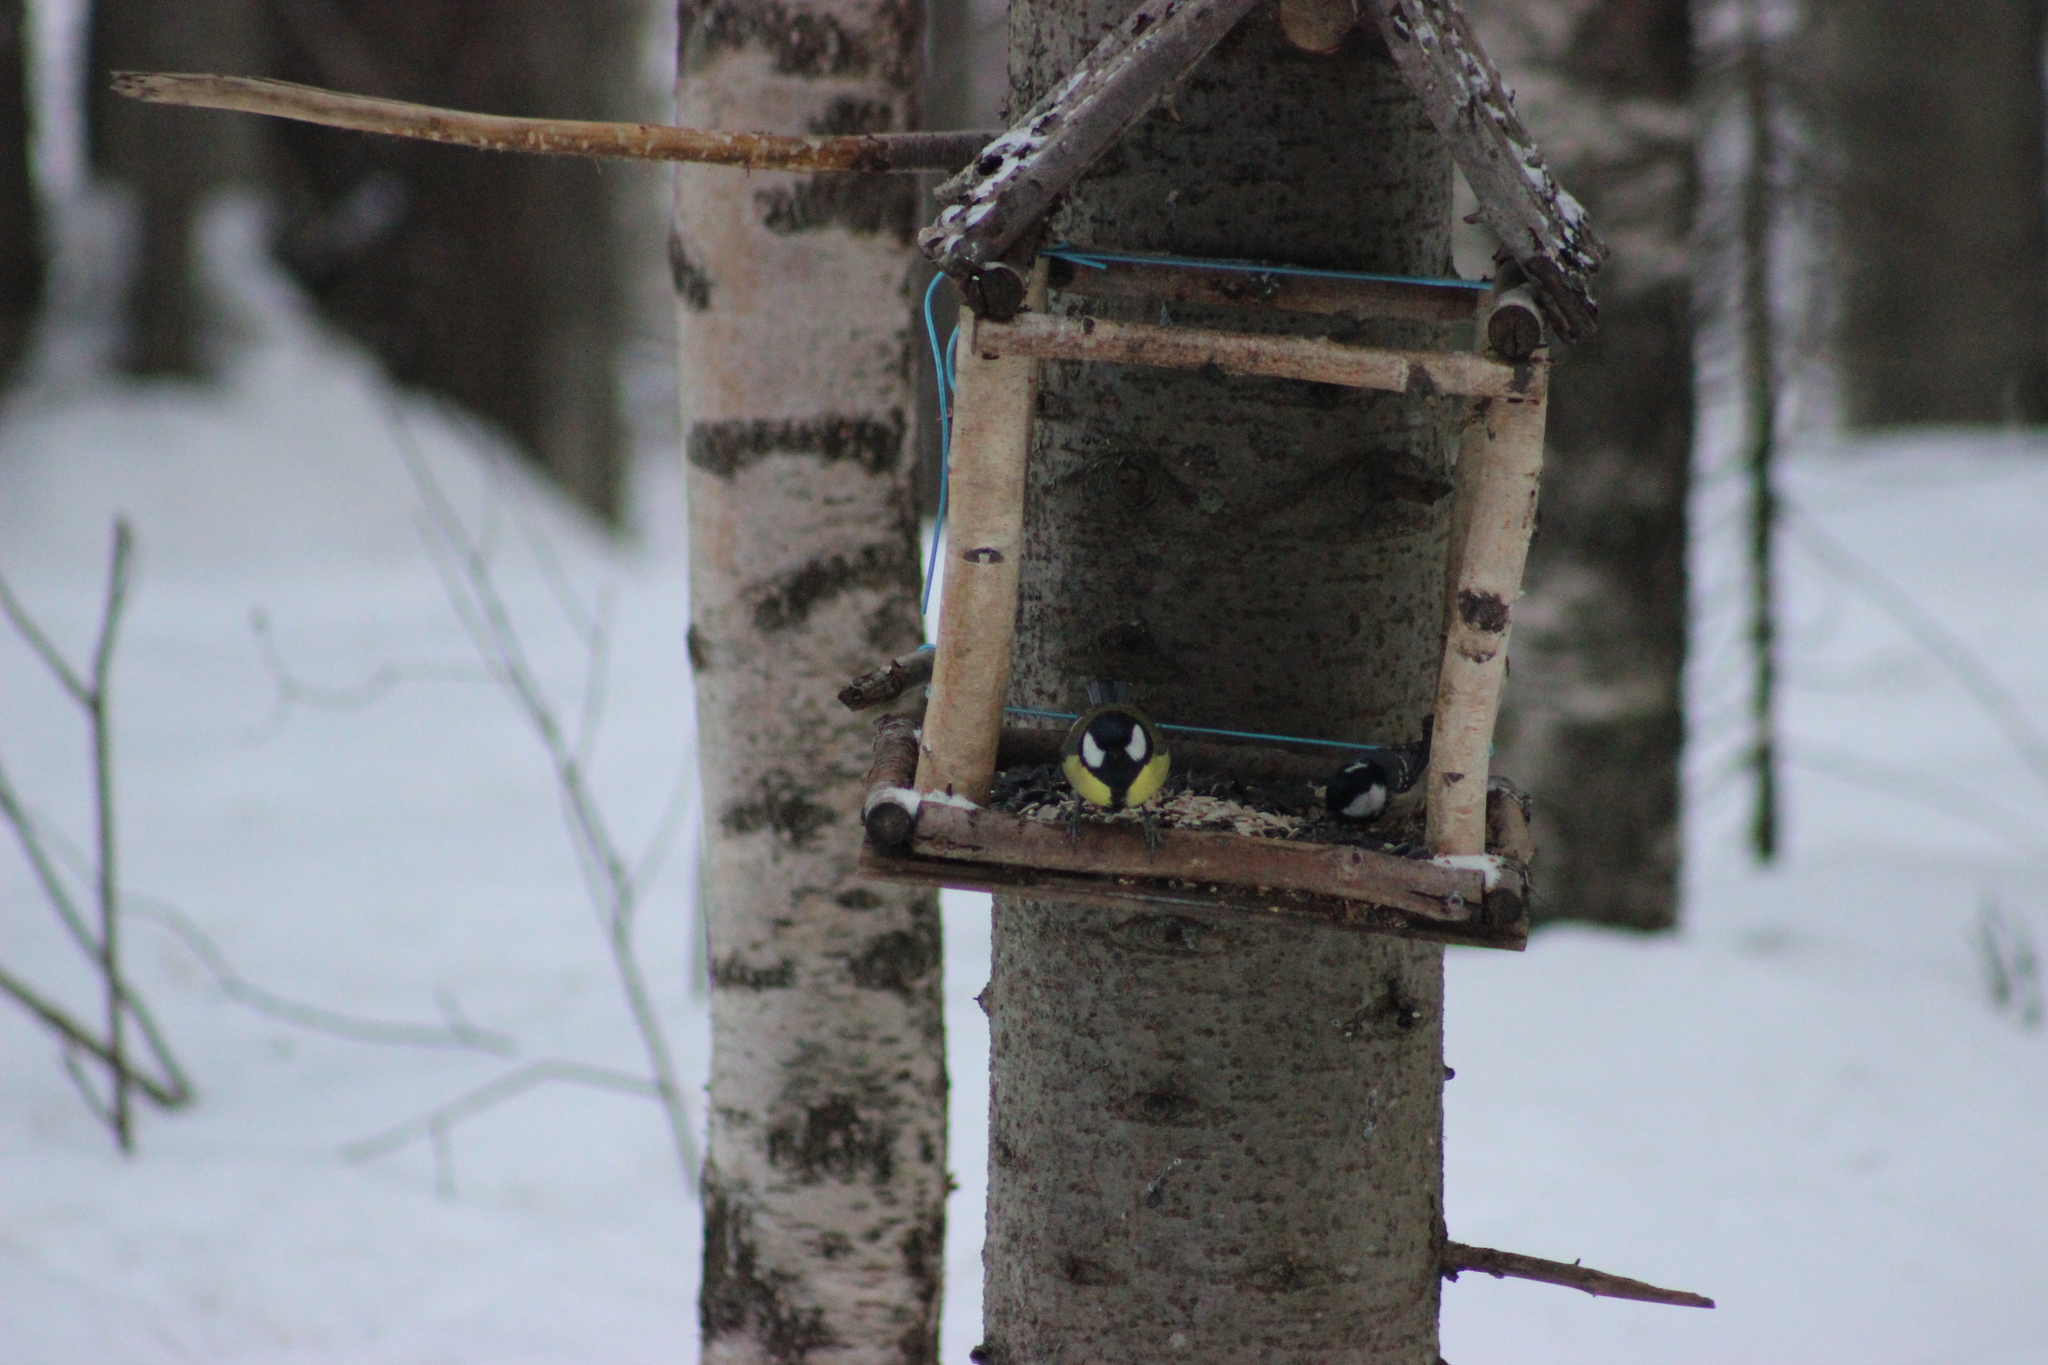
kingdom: Animalia
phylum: Chordata
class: Aves
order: Passeriformes
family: Paridae
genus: Parus
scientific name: Parus major
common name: Great tit
